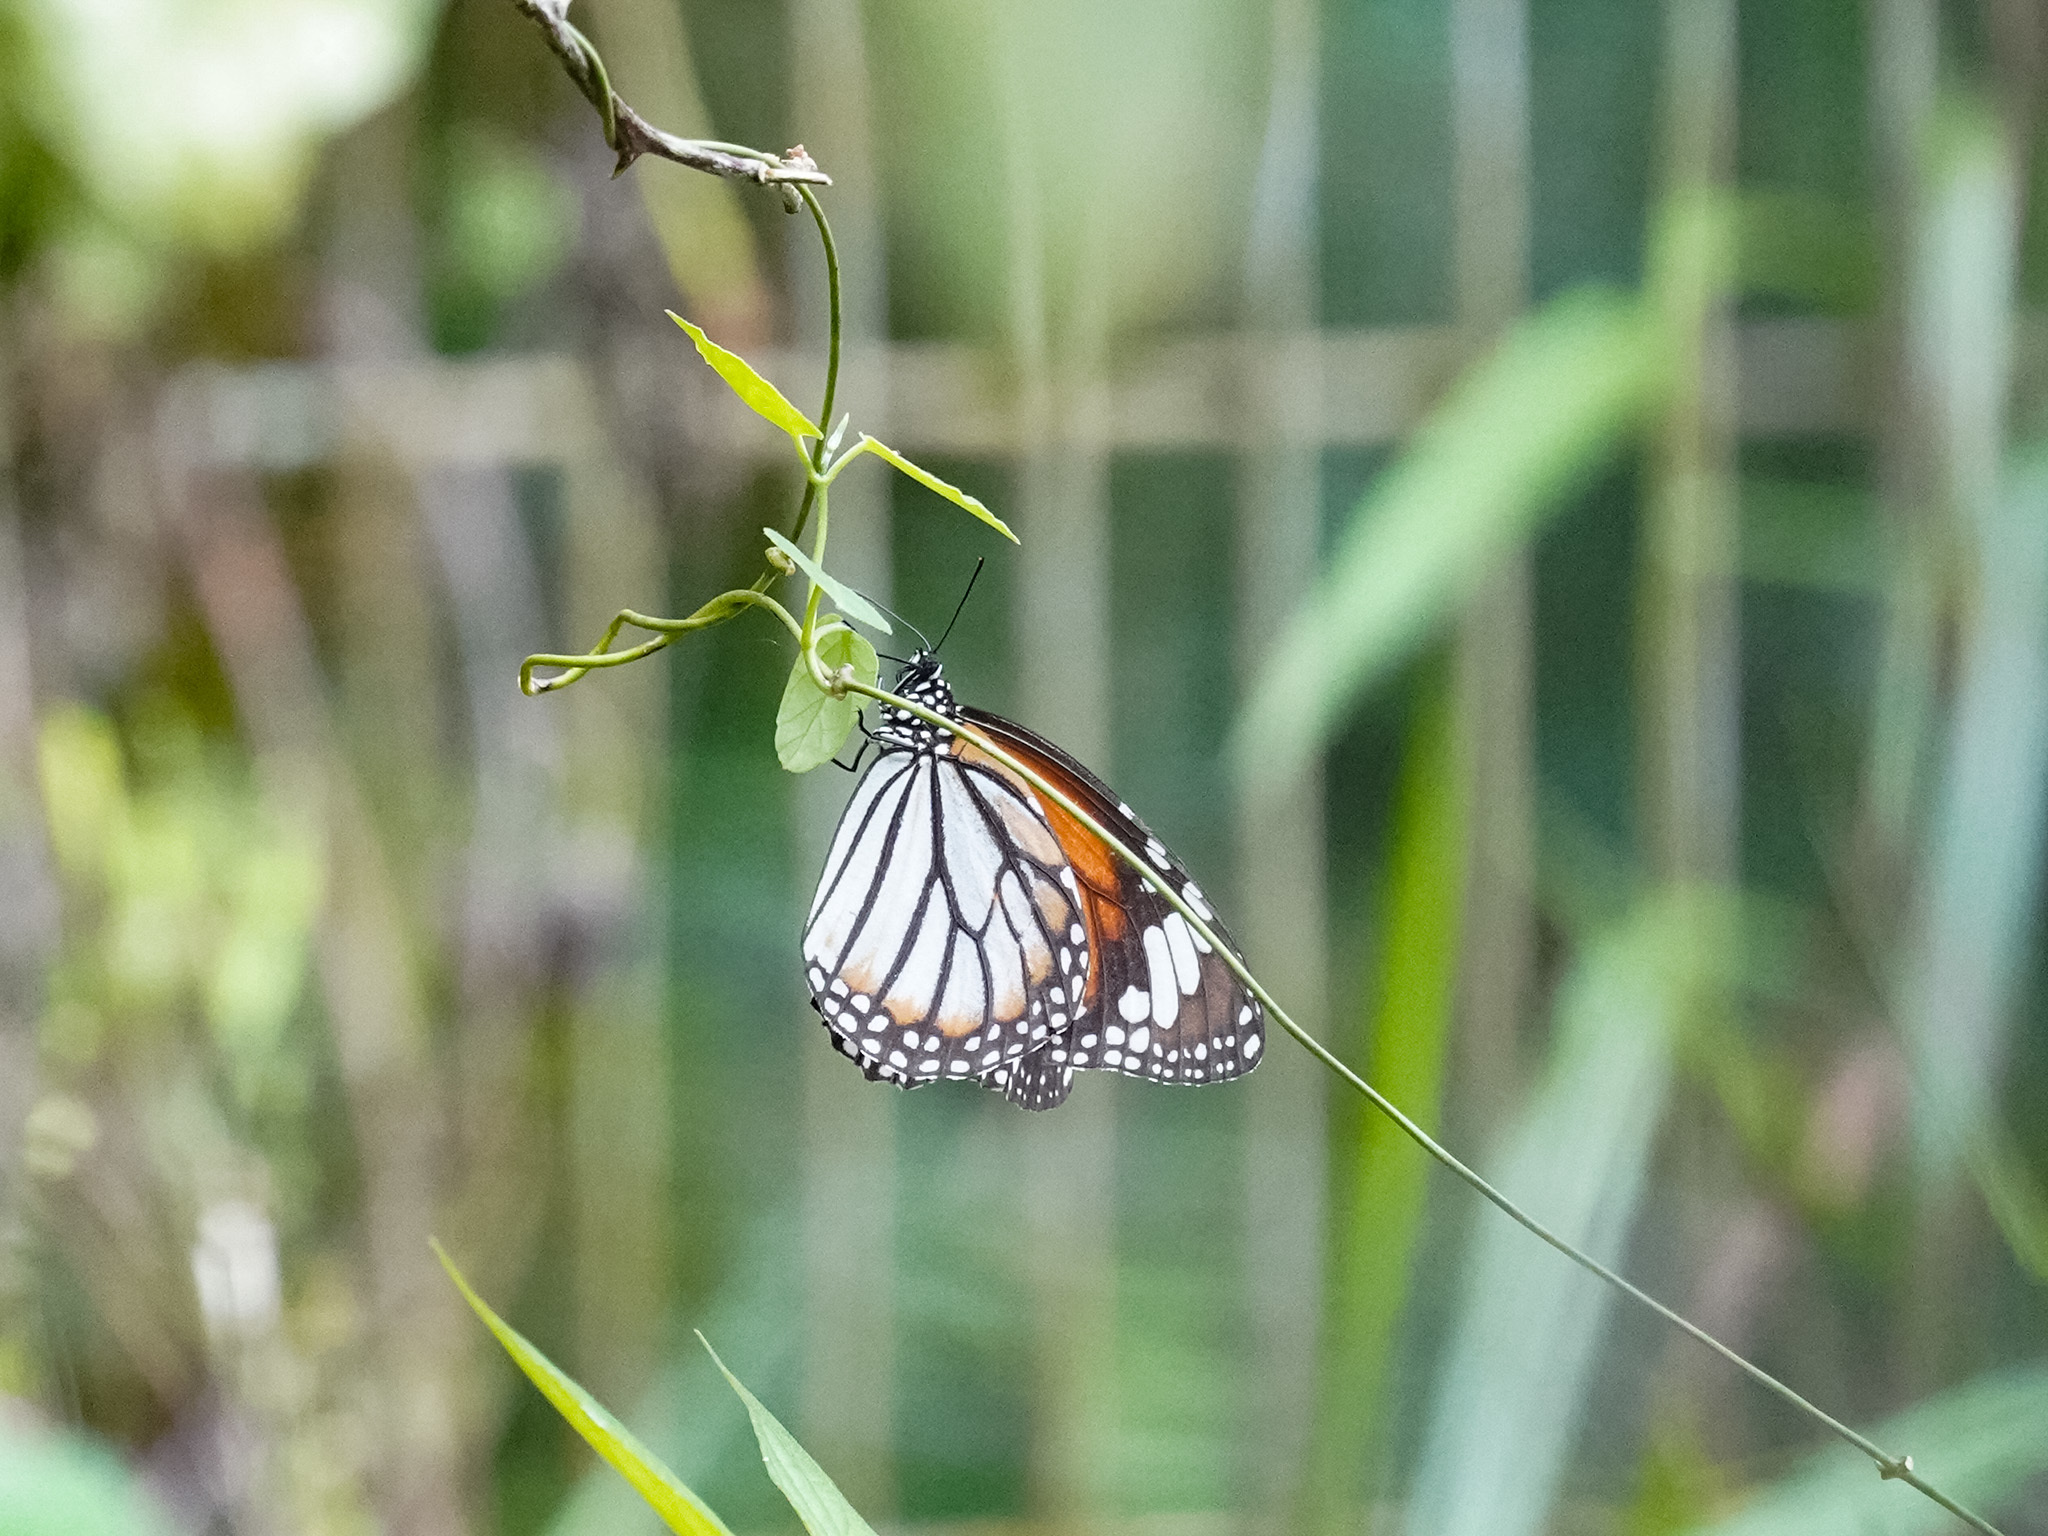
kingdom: Animalia
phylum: Arthropoda
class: Insecta
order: Lepidoptera
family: Nymphalidae
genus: Danaus
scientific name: Danaus genutia
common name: Common tiger butterfly
